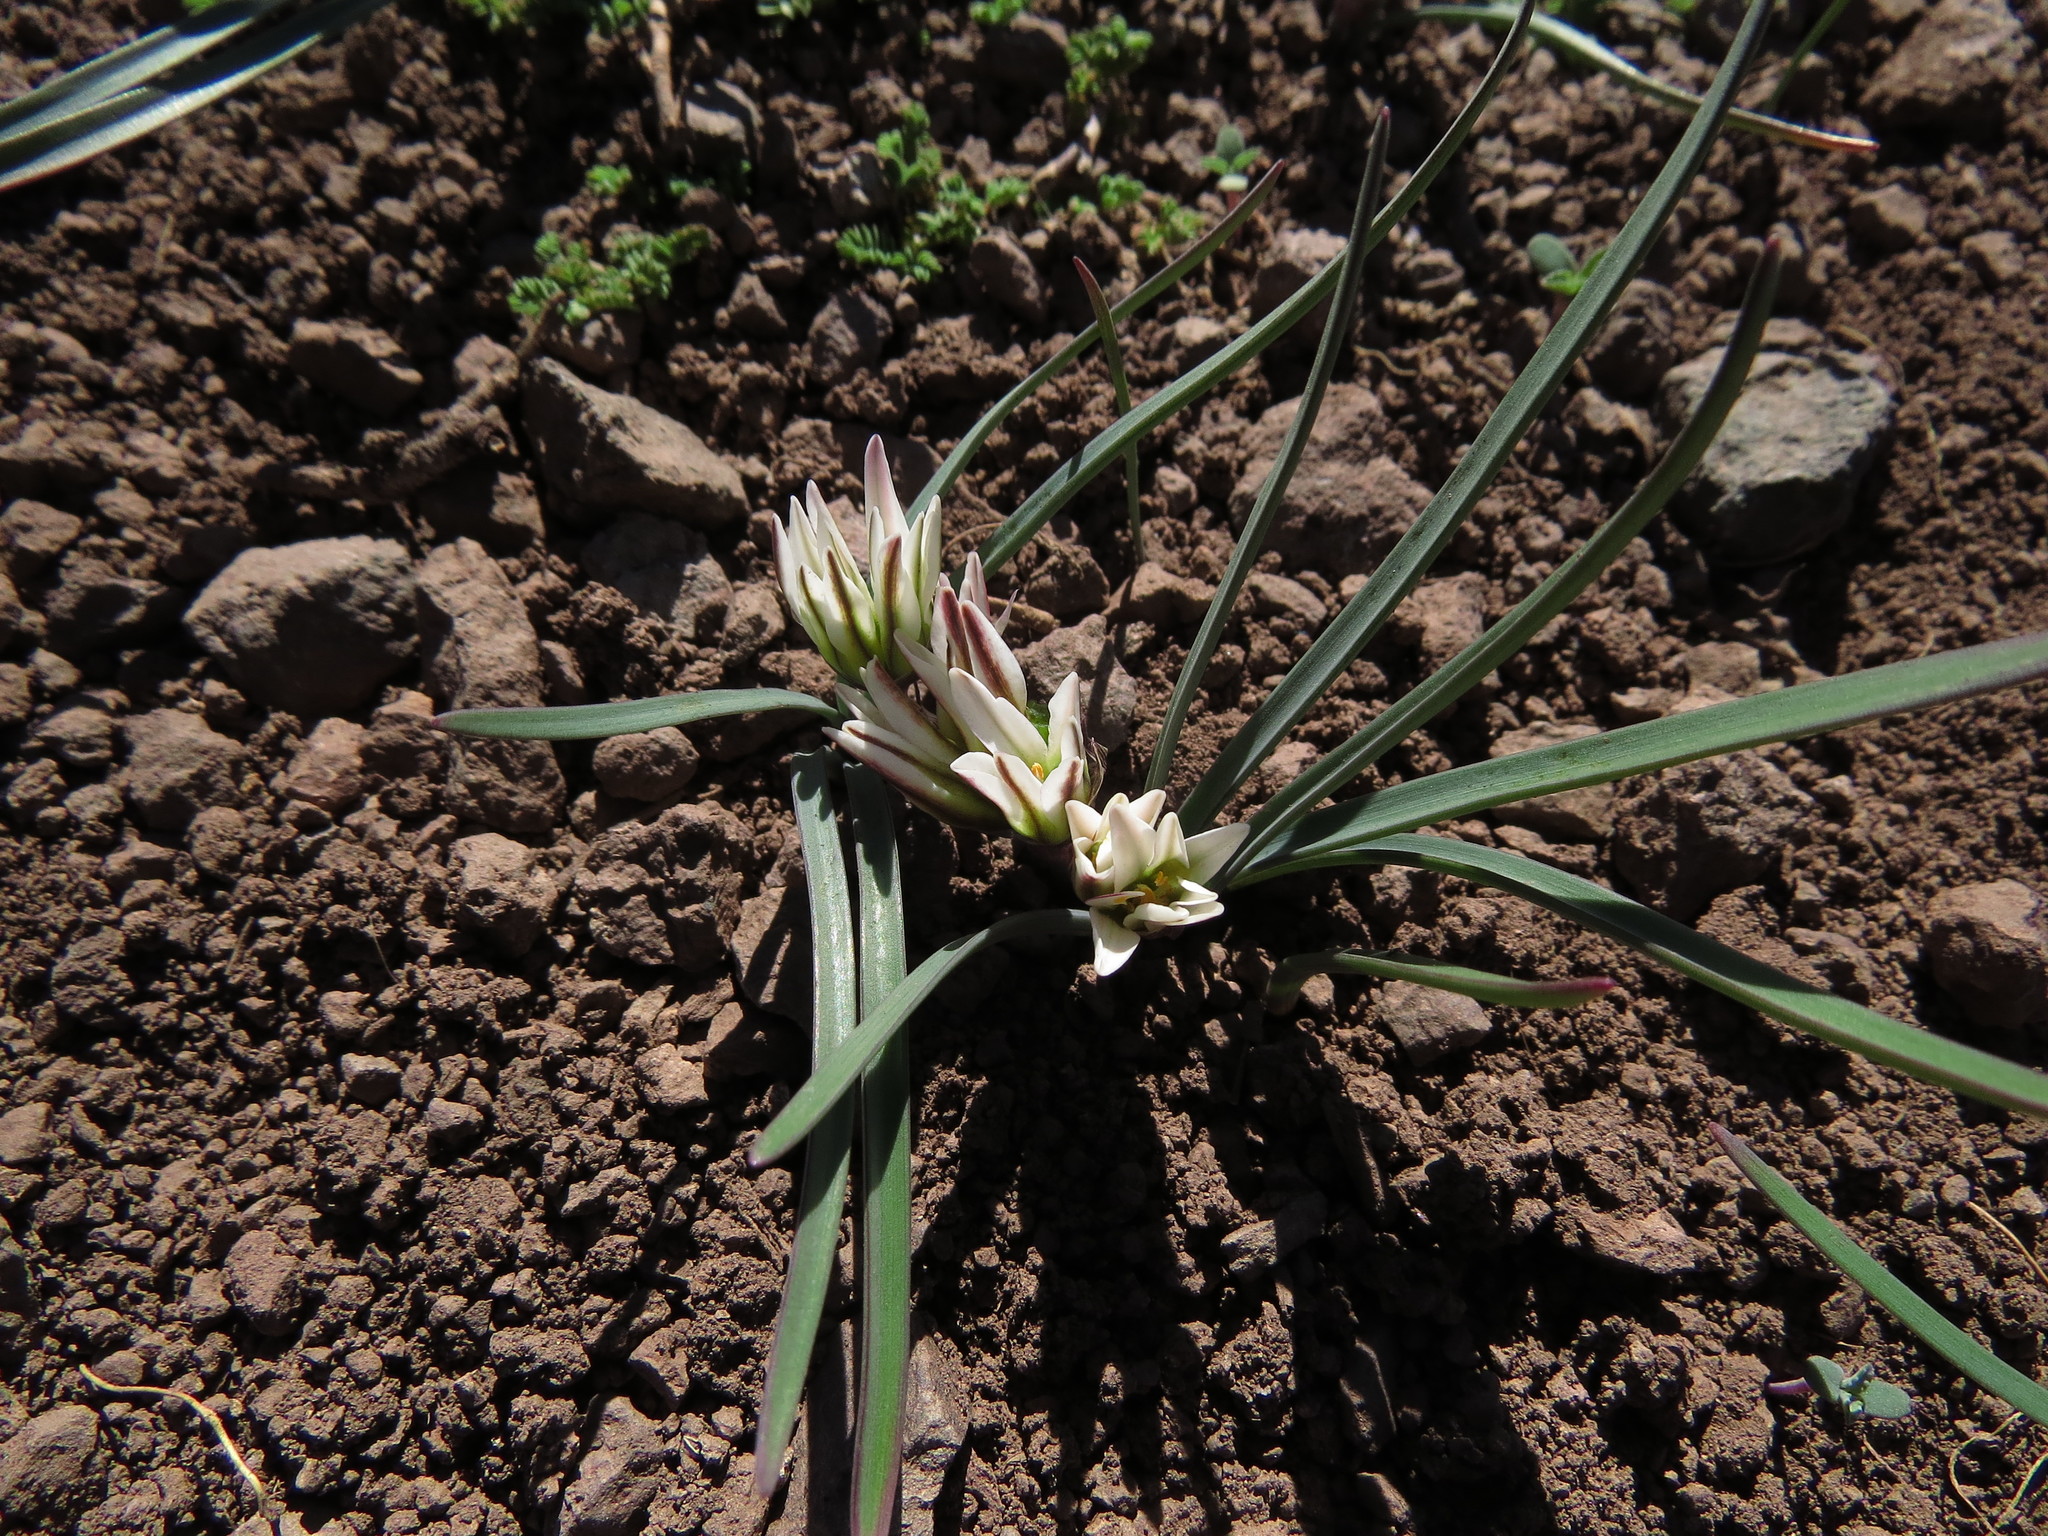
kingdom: Plantae
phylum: Tracheophyta
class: Liliopsida
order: Asparagales
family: Amaryllidaceae
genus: Tristagma
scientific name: Tristagma bivalve
